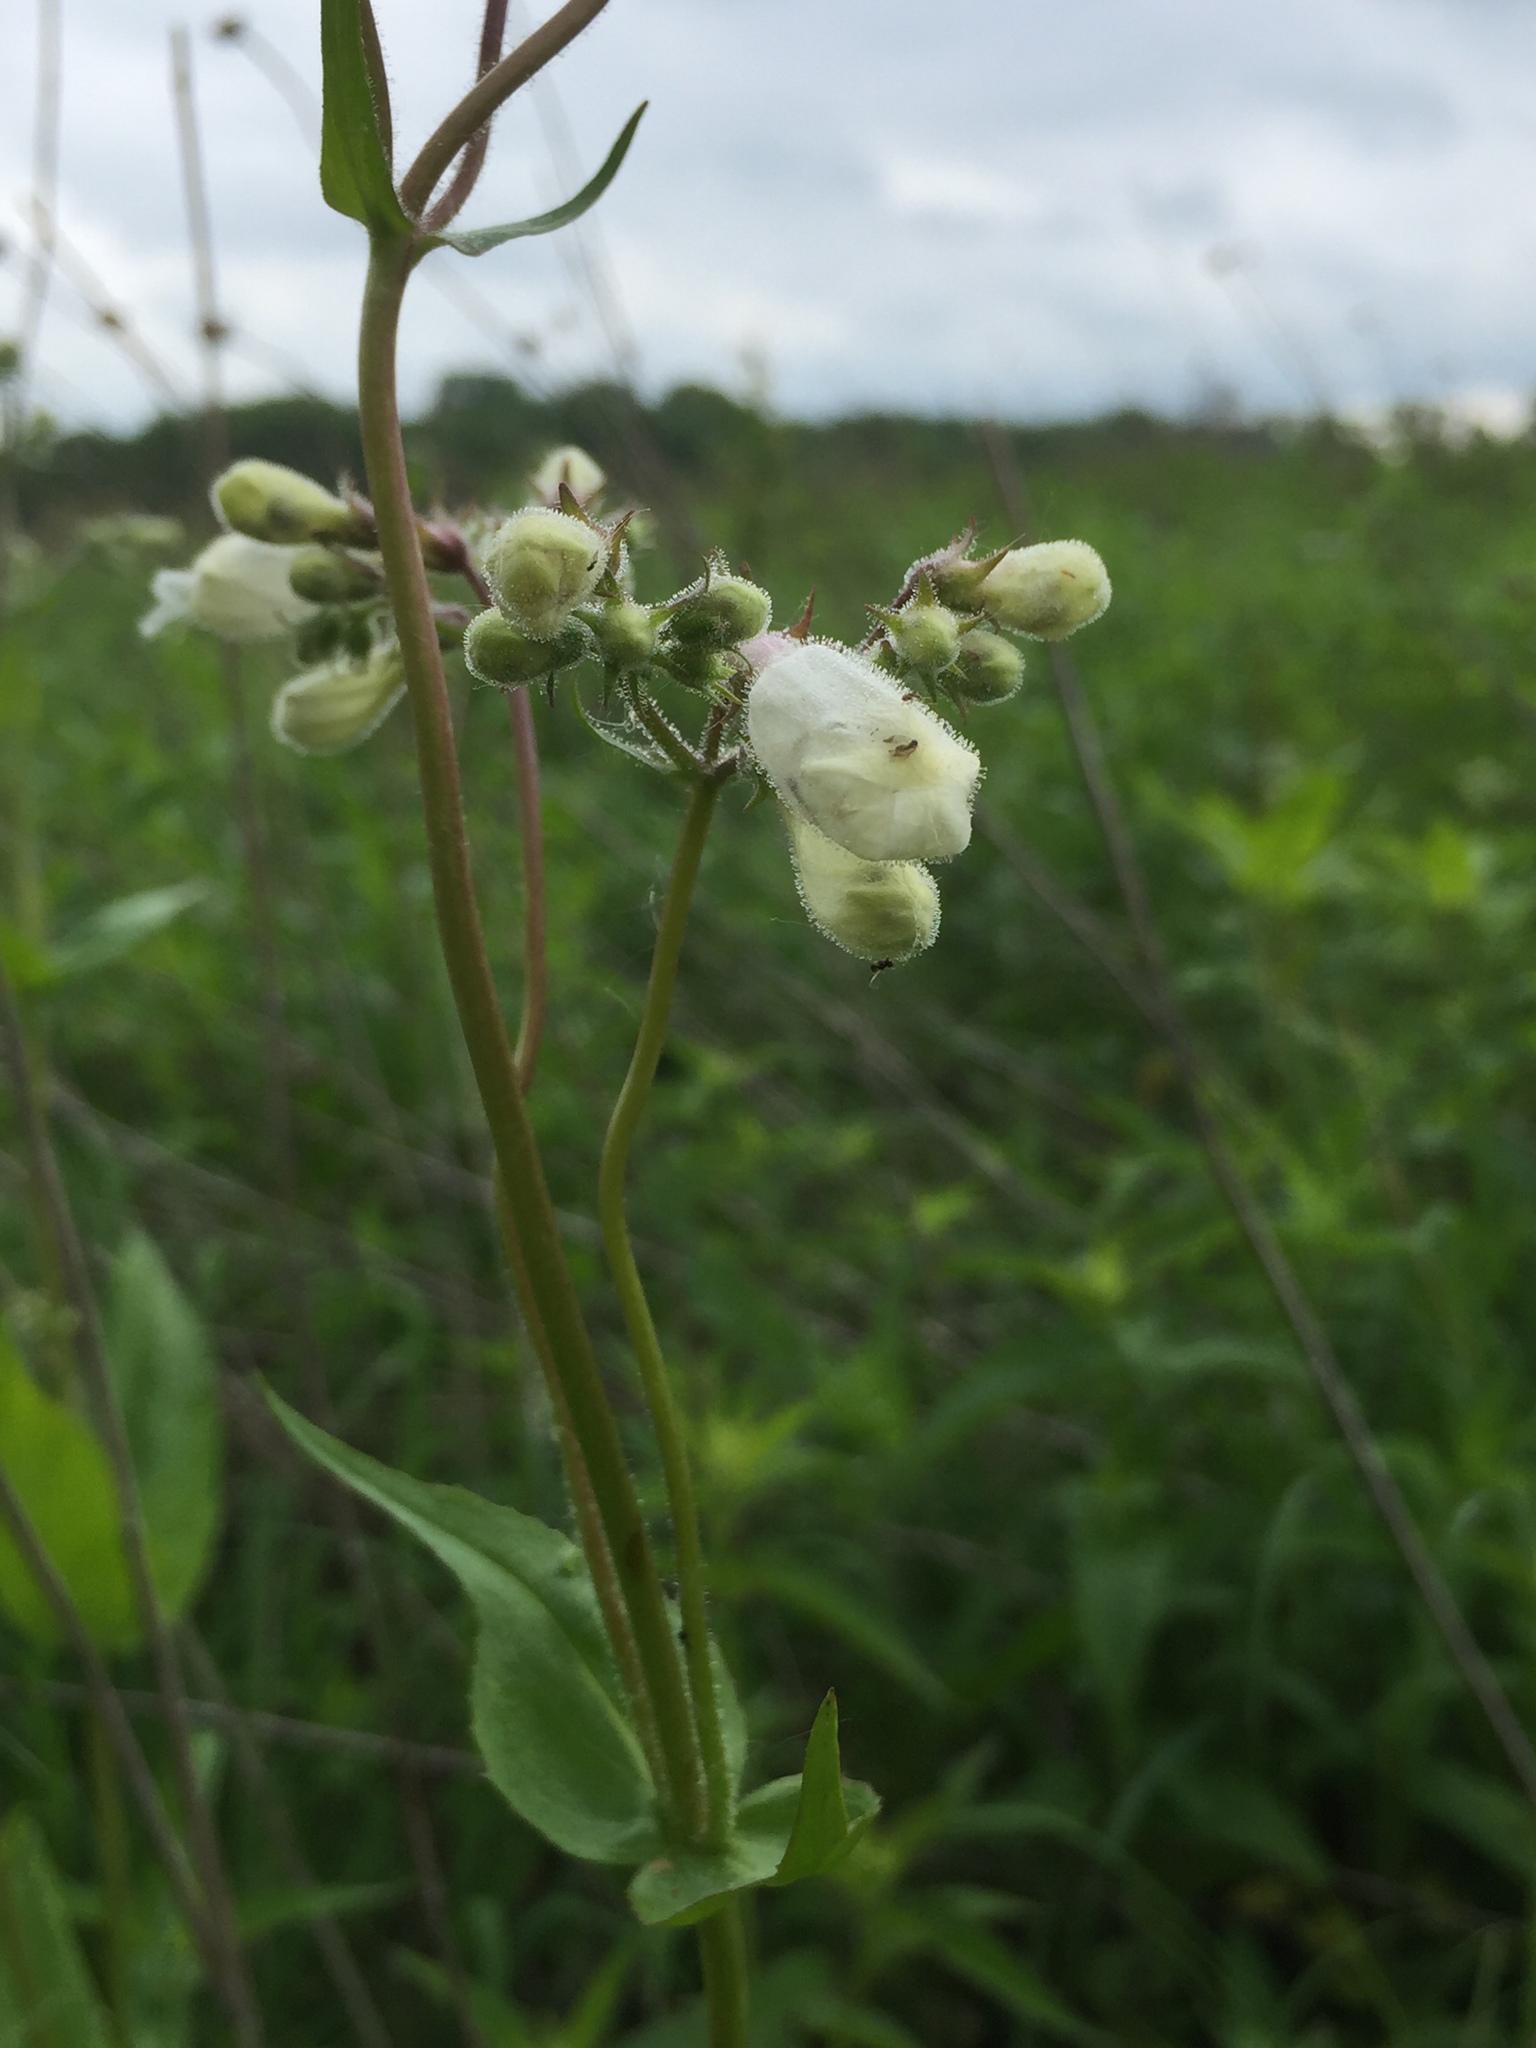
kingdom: Plantae
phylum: Tracheophyta
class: Magnoliopsida
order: Lamiales
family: Plantaginaceae
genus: Penstemon
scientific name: Penstemon digitalis
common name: Foxglove beardtongue
